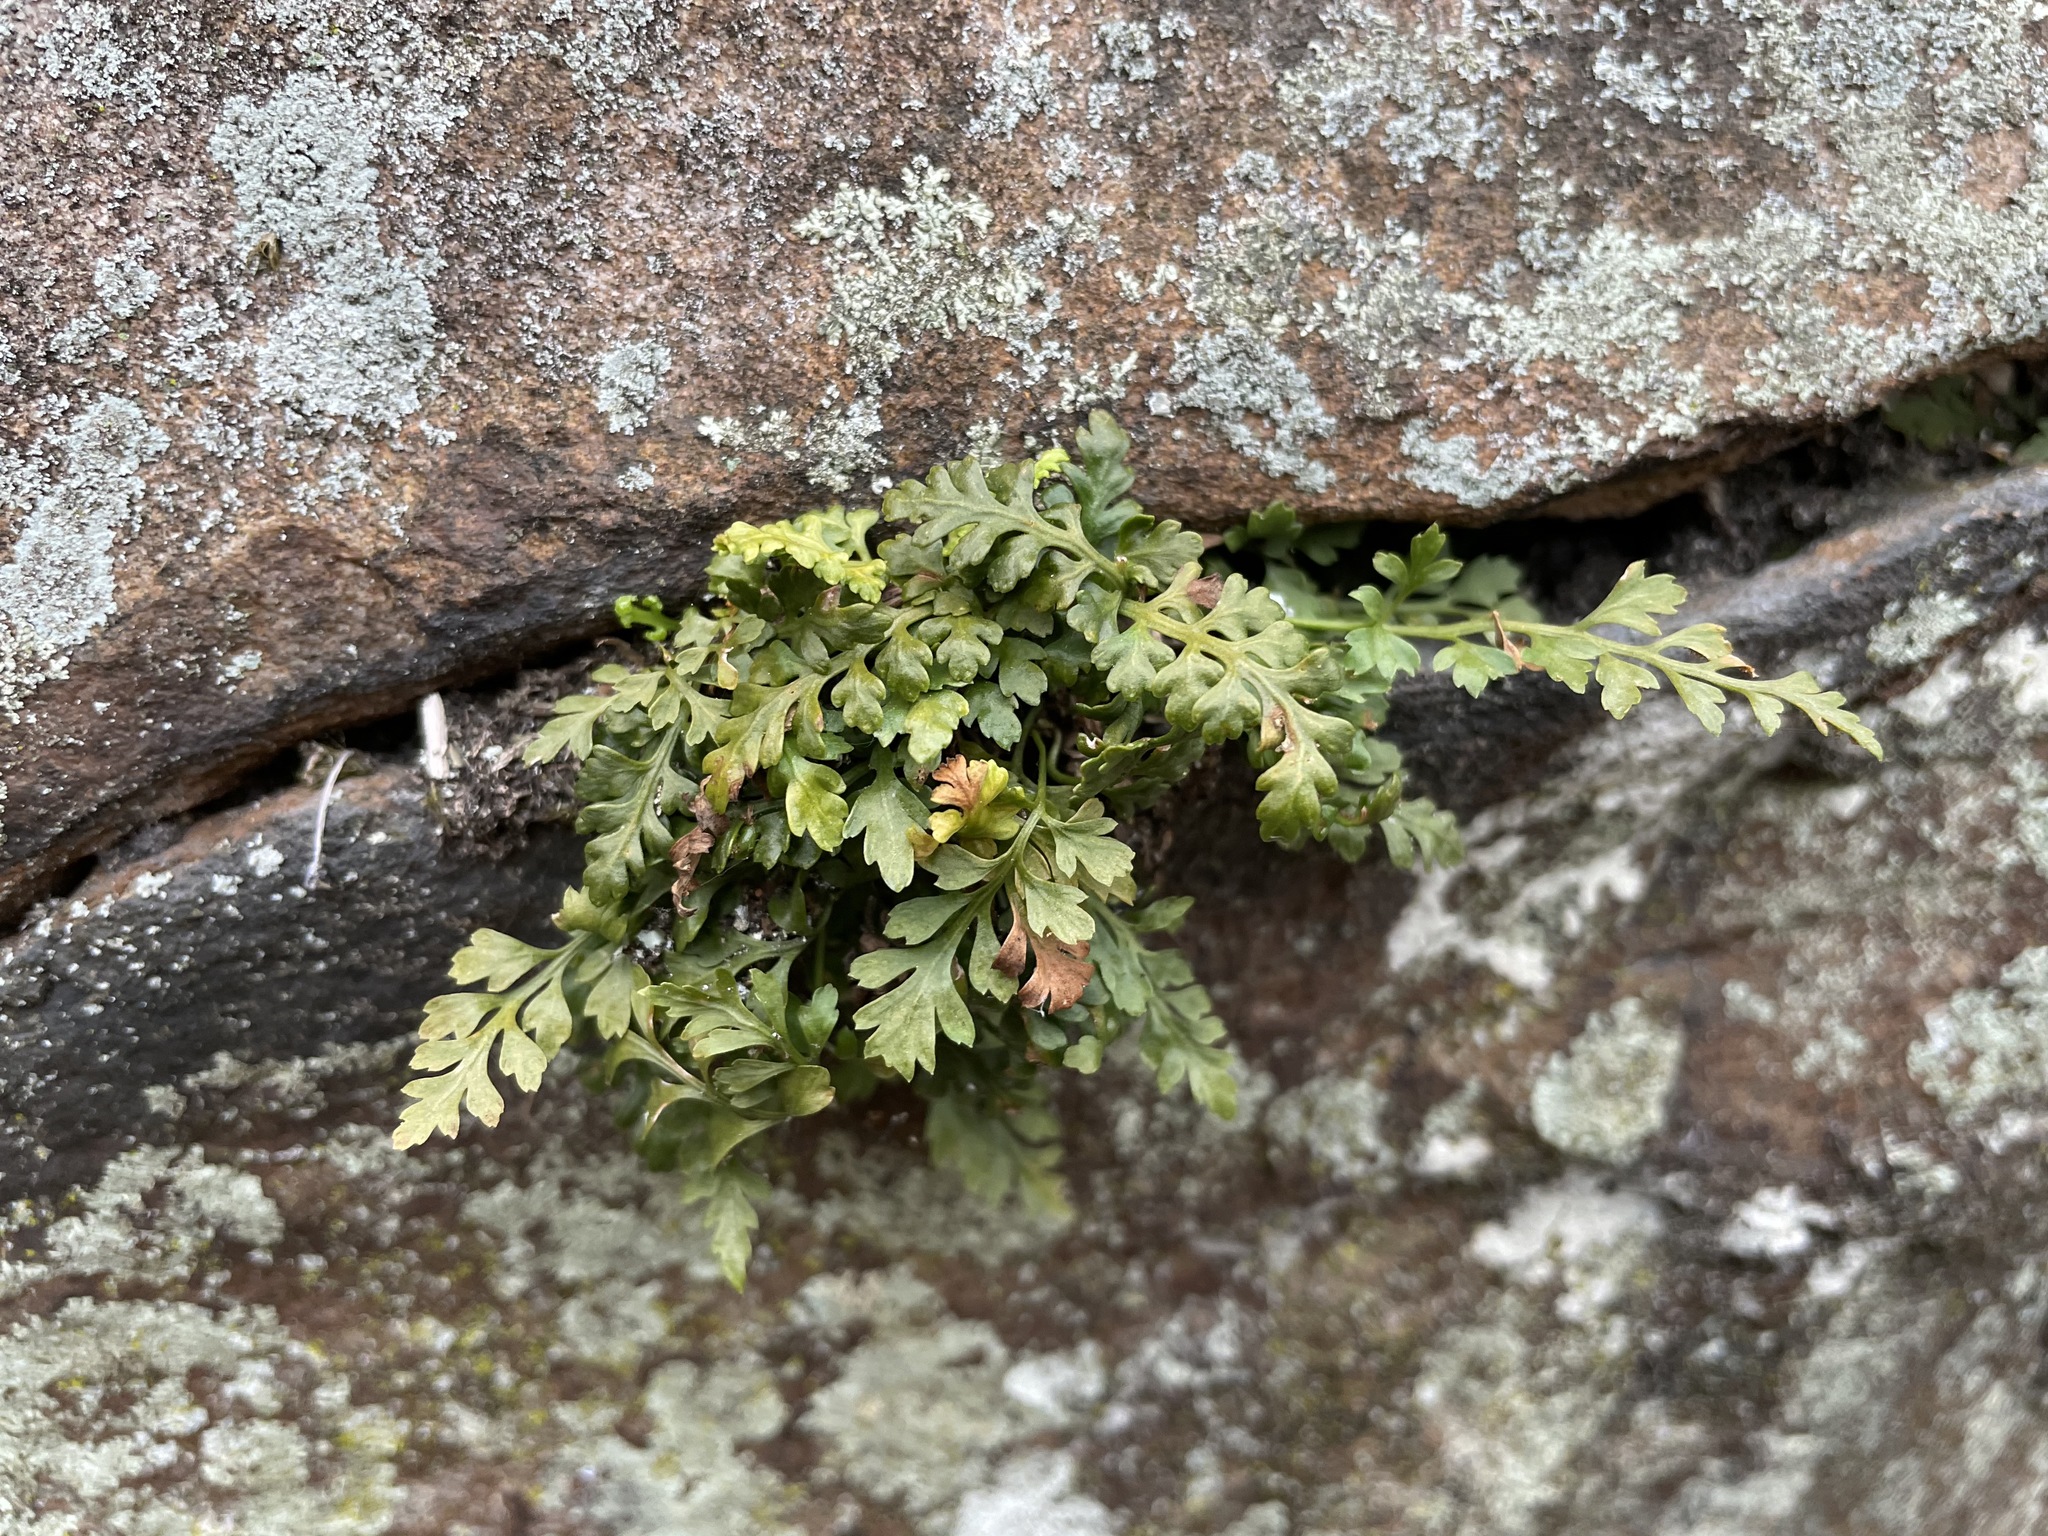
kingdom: Plantae
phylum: Tracheophyta
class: Polypodiopsida
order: Polypodiales
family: Aspleniaceae
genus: Asplenium
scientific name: Asplenium montanum
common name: Mountain spleenwort
